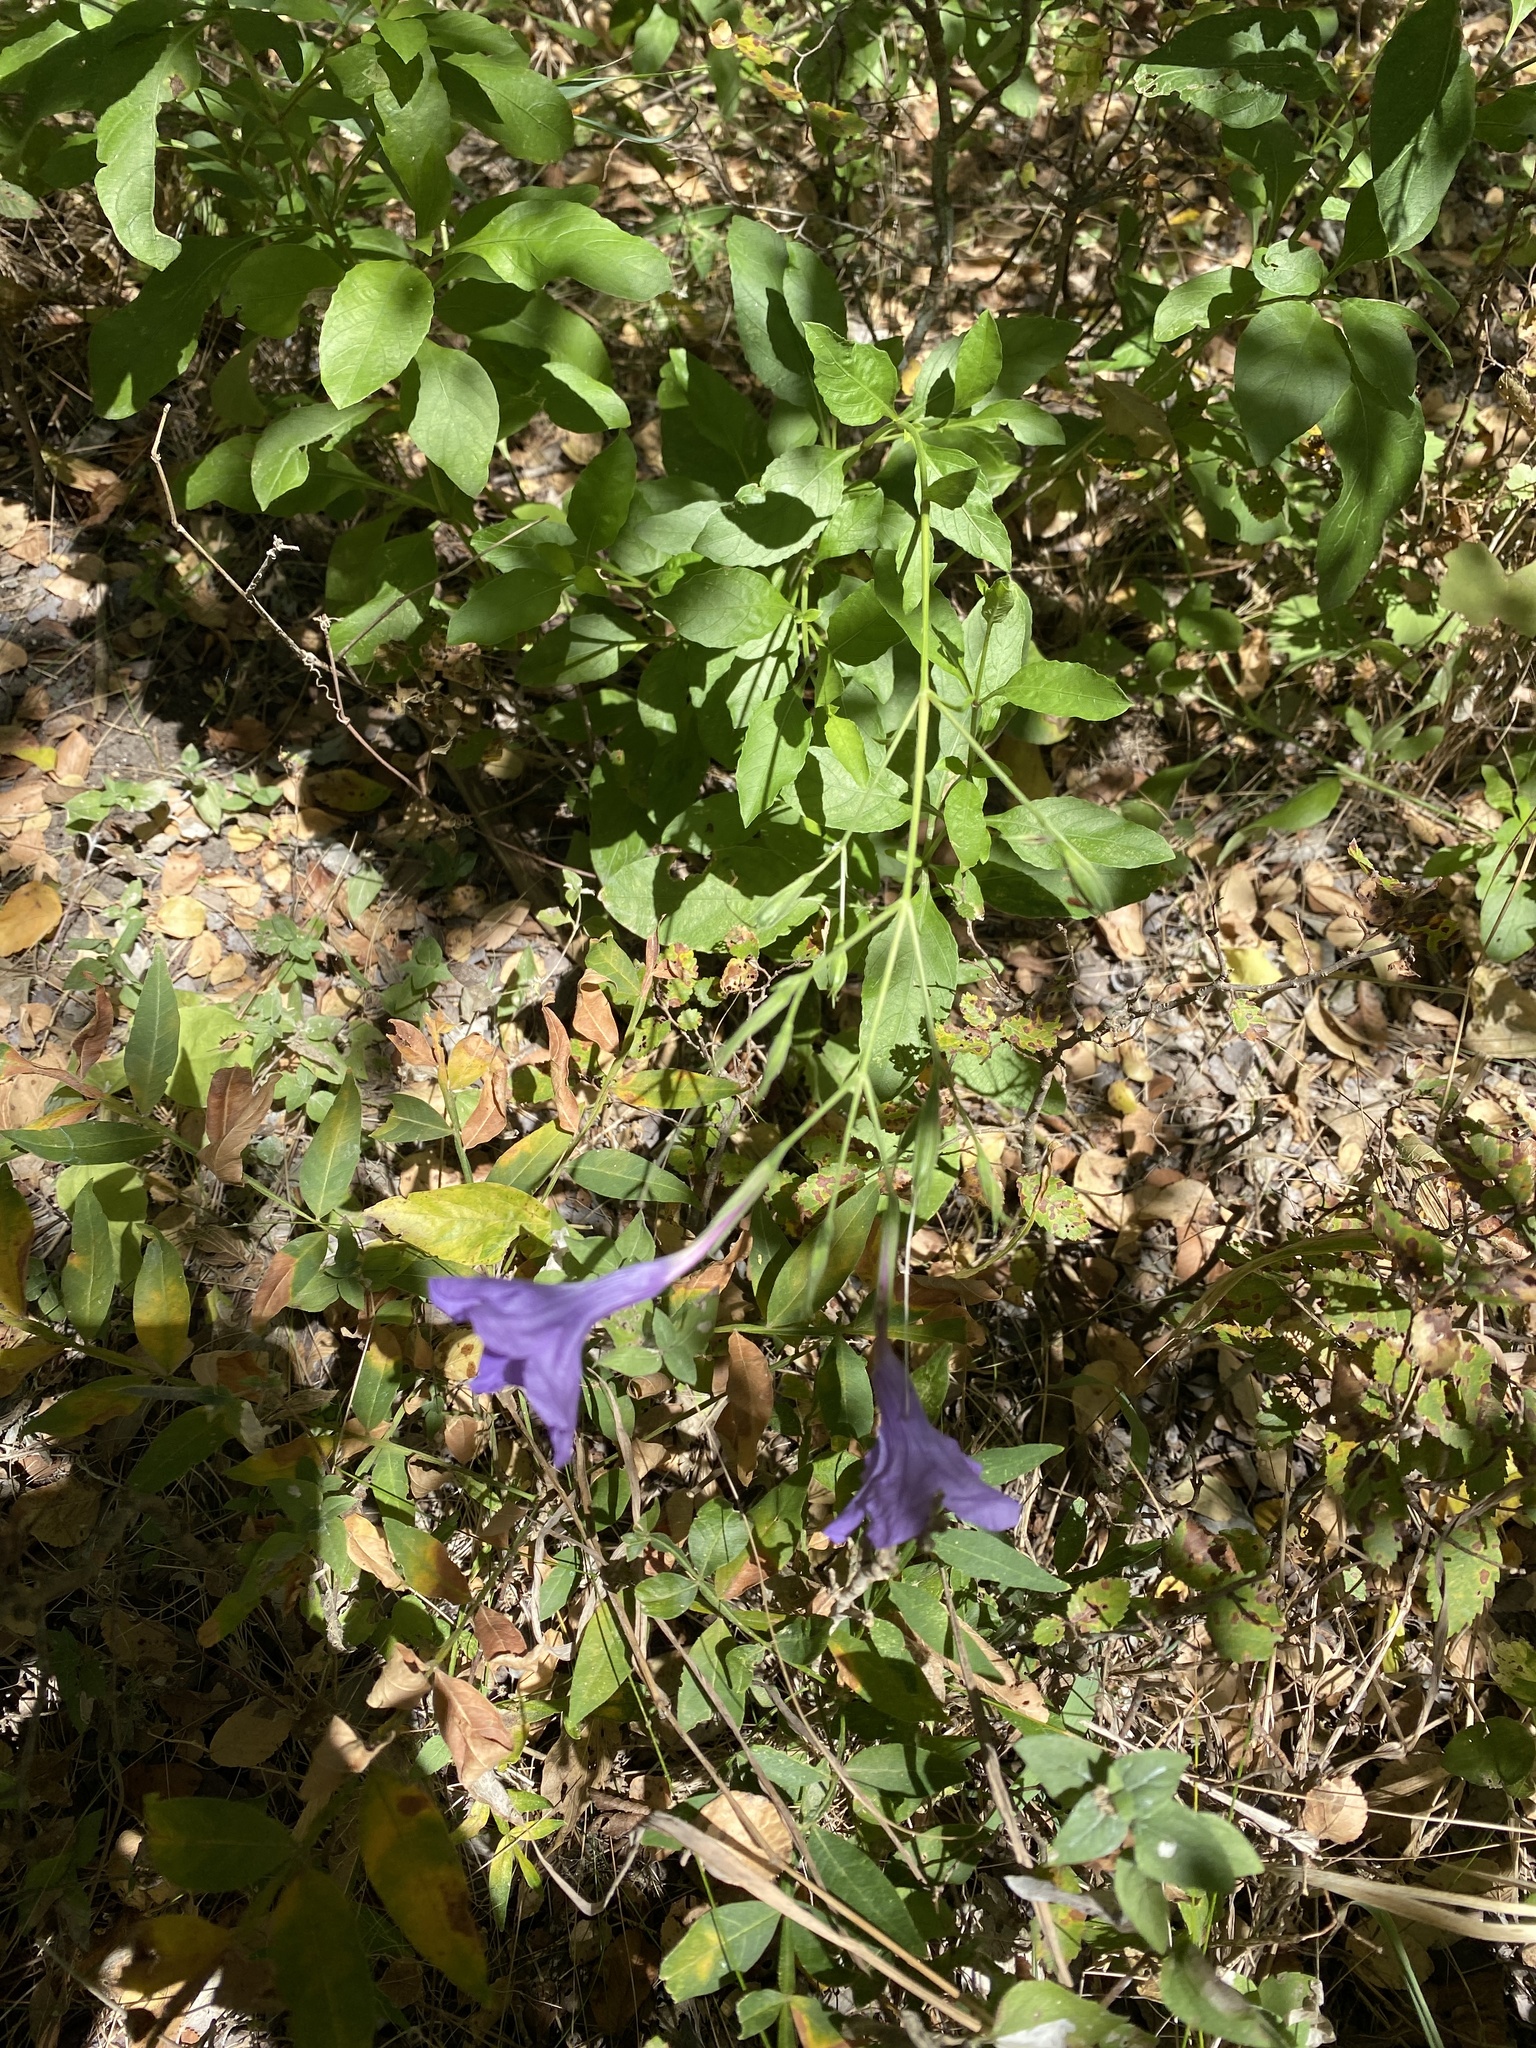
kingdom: Plantae
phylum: Tracheophyta
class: Magnoliopsida
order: Lamiales
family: Acanthaceae
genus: Ruellia
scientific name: Ruellia ciliatiflora
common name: Hairyflower wild petunia
